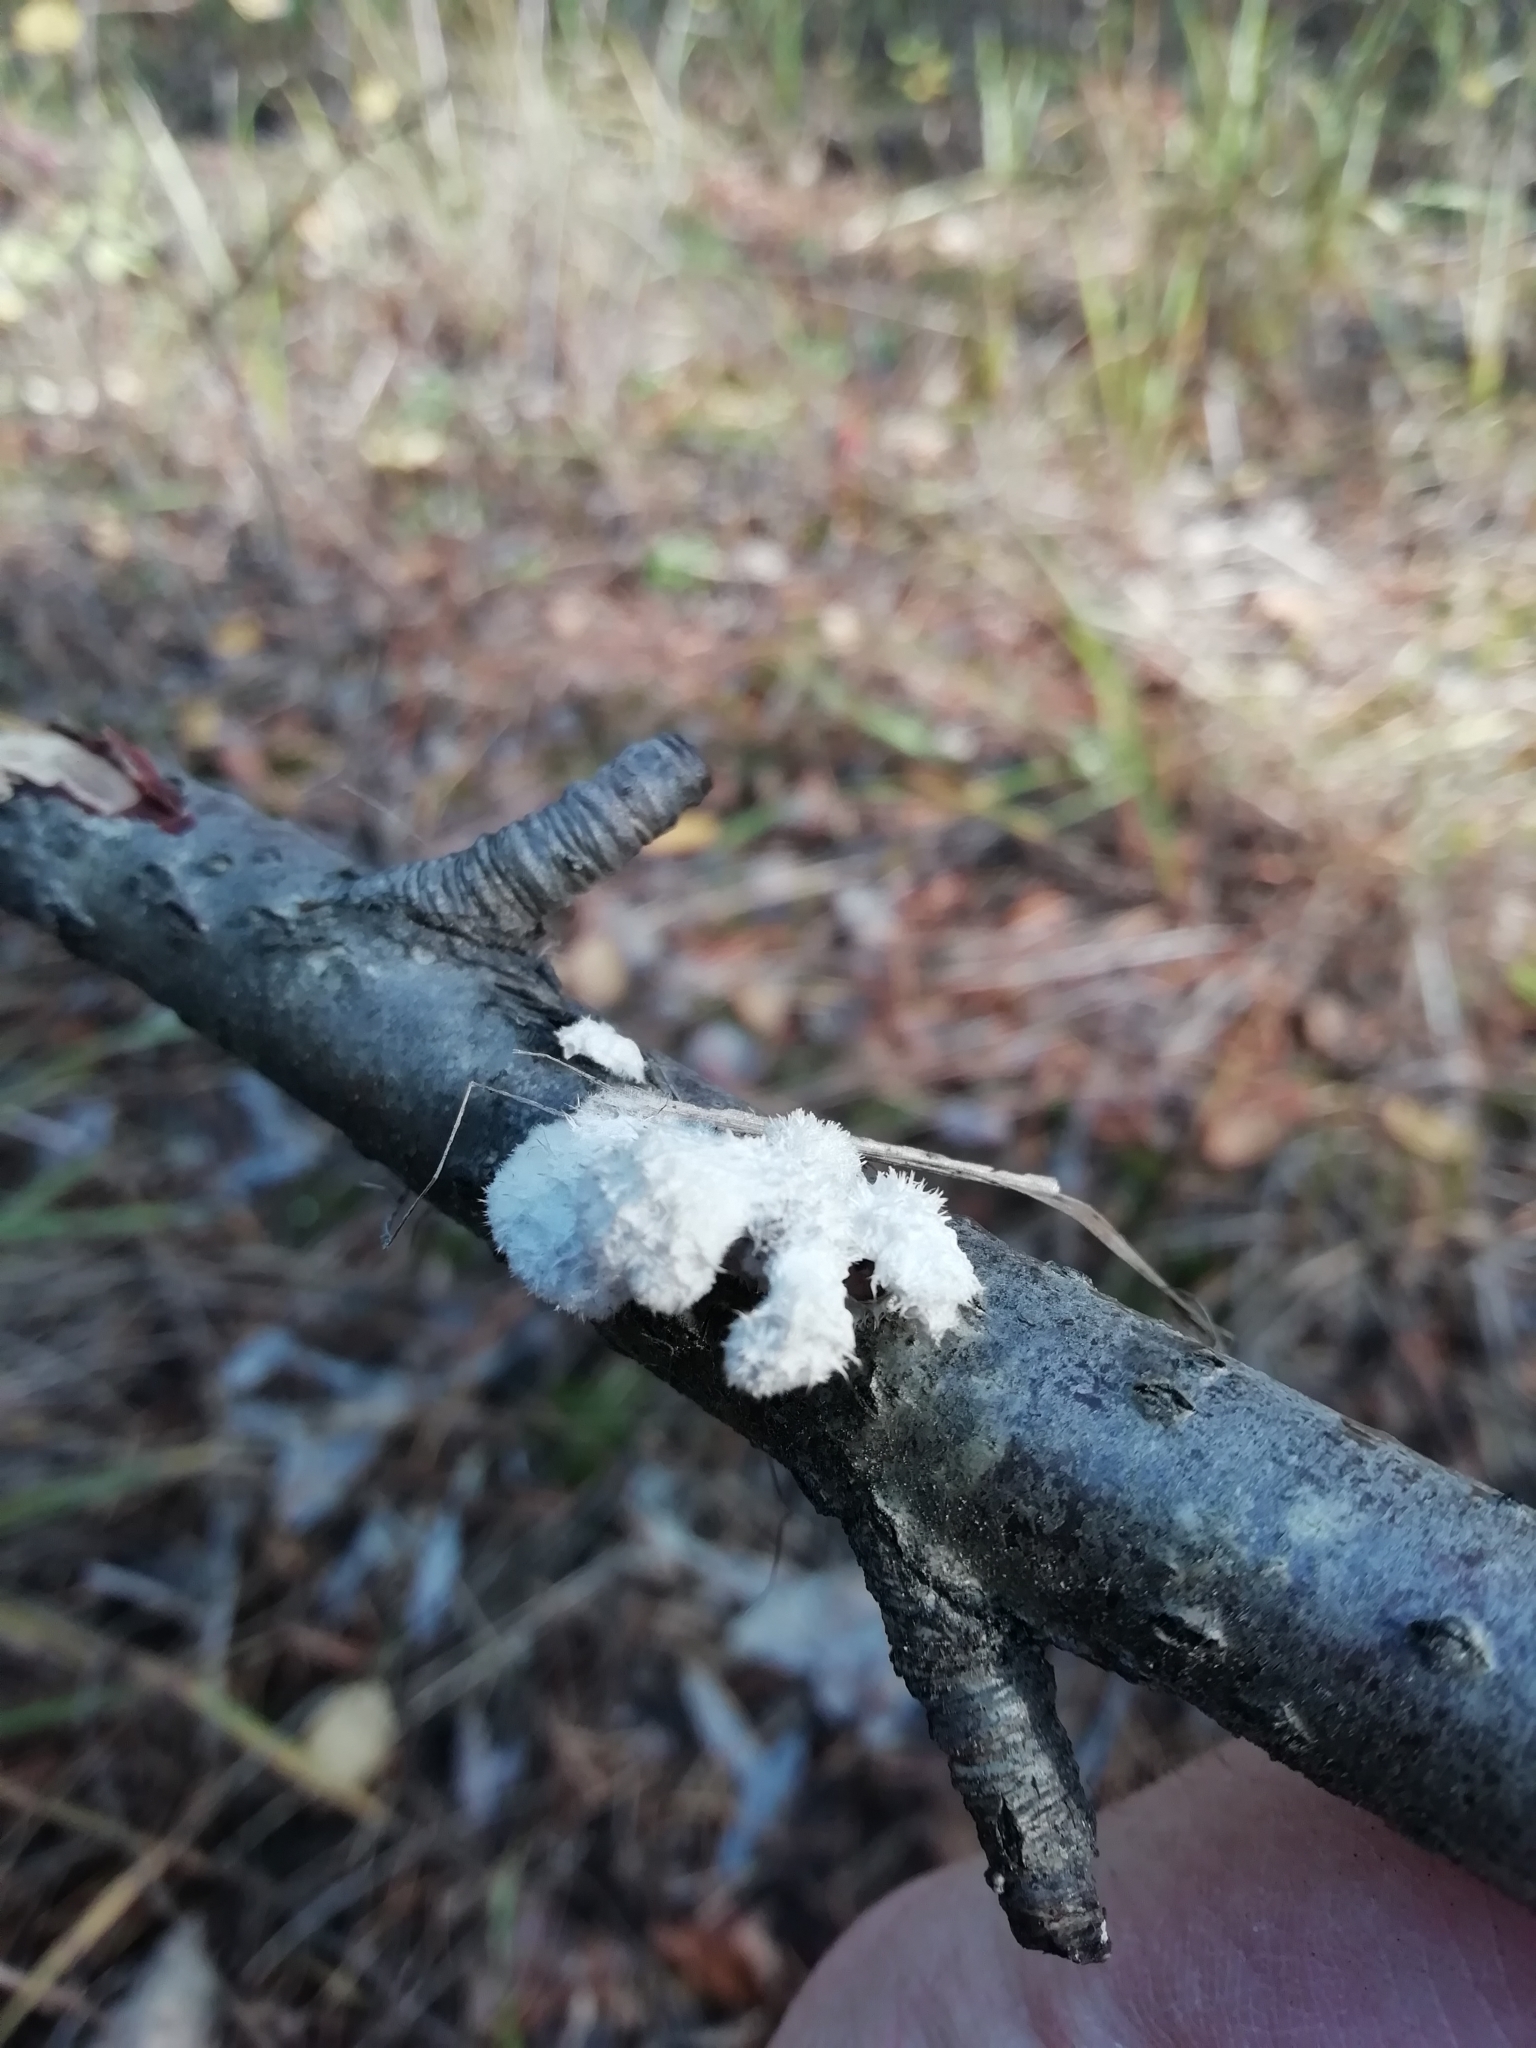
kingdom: Fungi
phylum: Basidiomycota
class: Agaricomycetes
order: Agaricales
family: Schizophyllaceae
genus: Schizophyllum
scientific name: Schizophyllum commune
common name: Common porecrust
